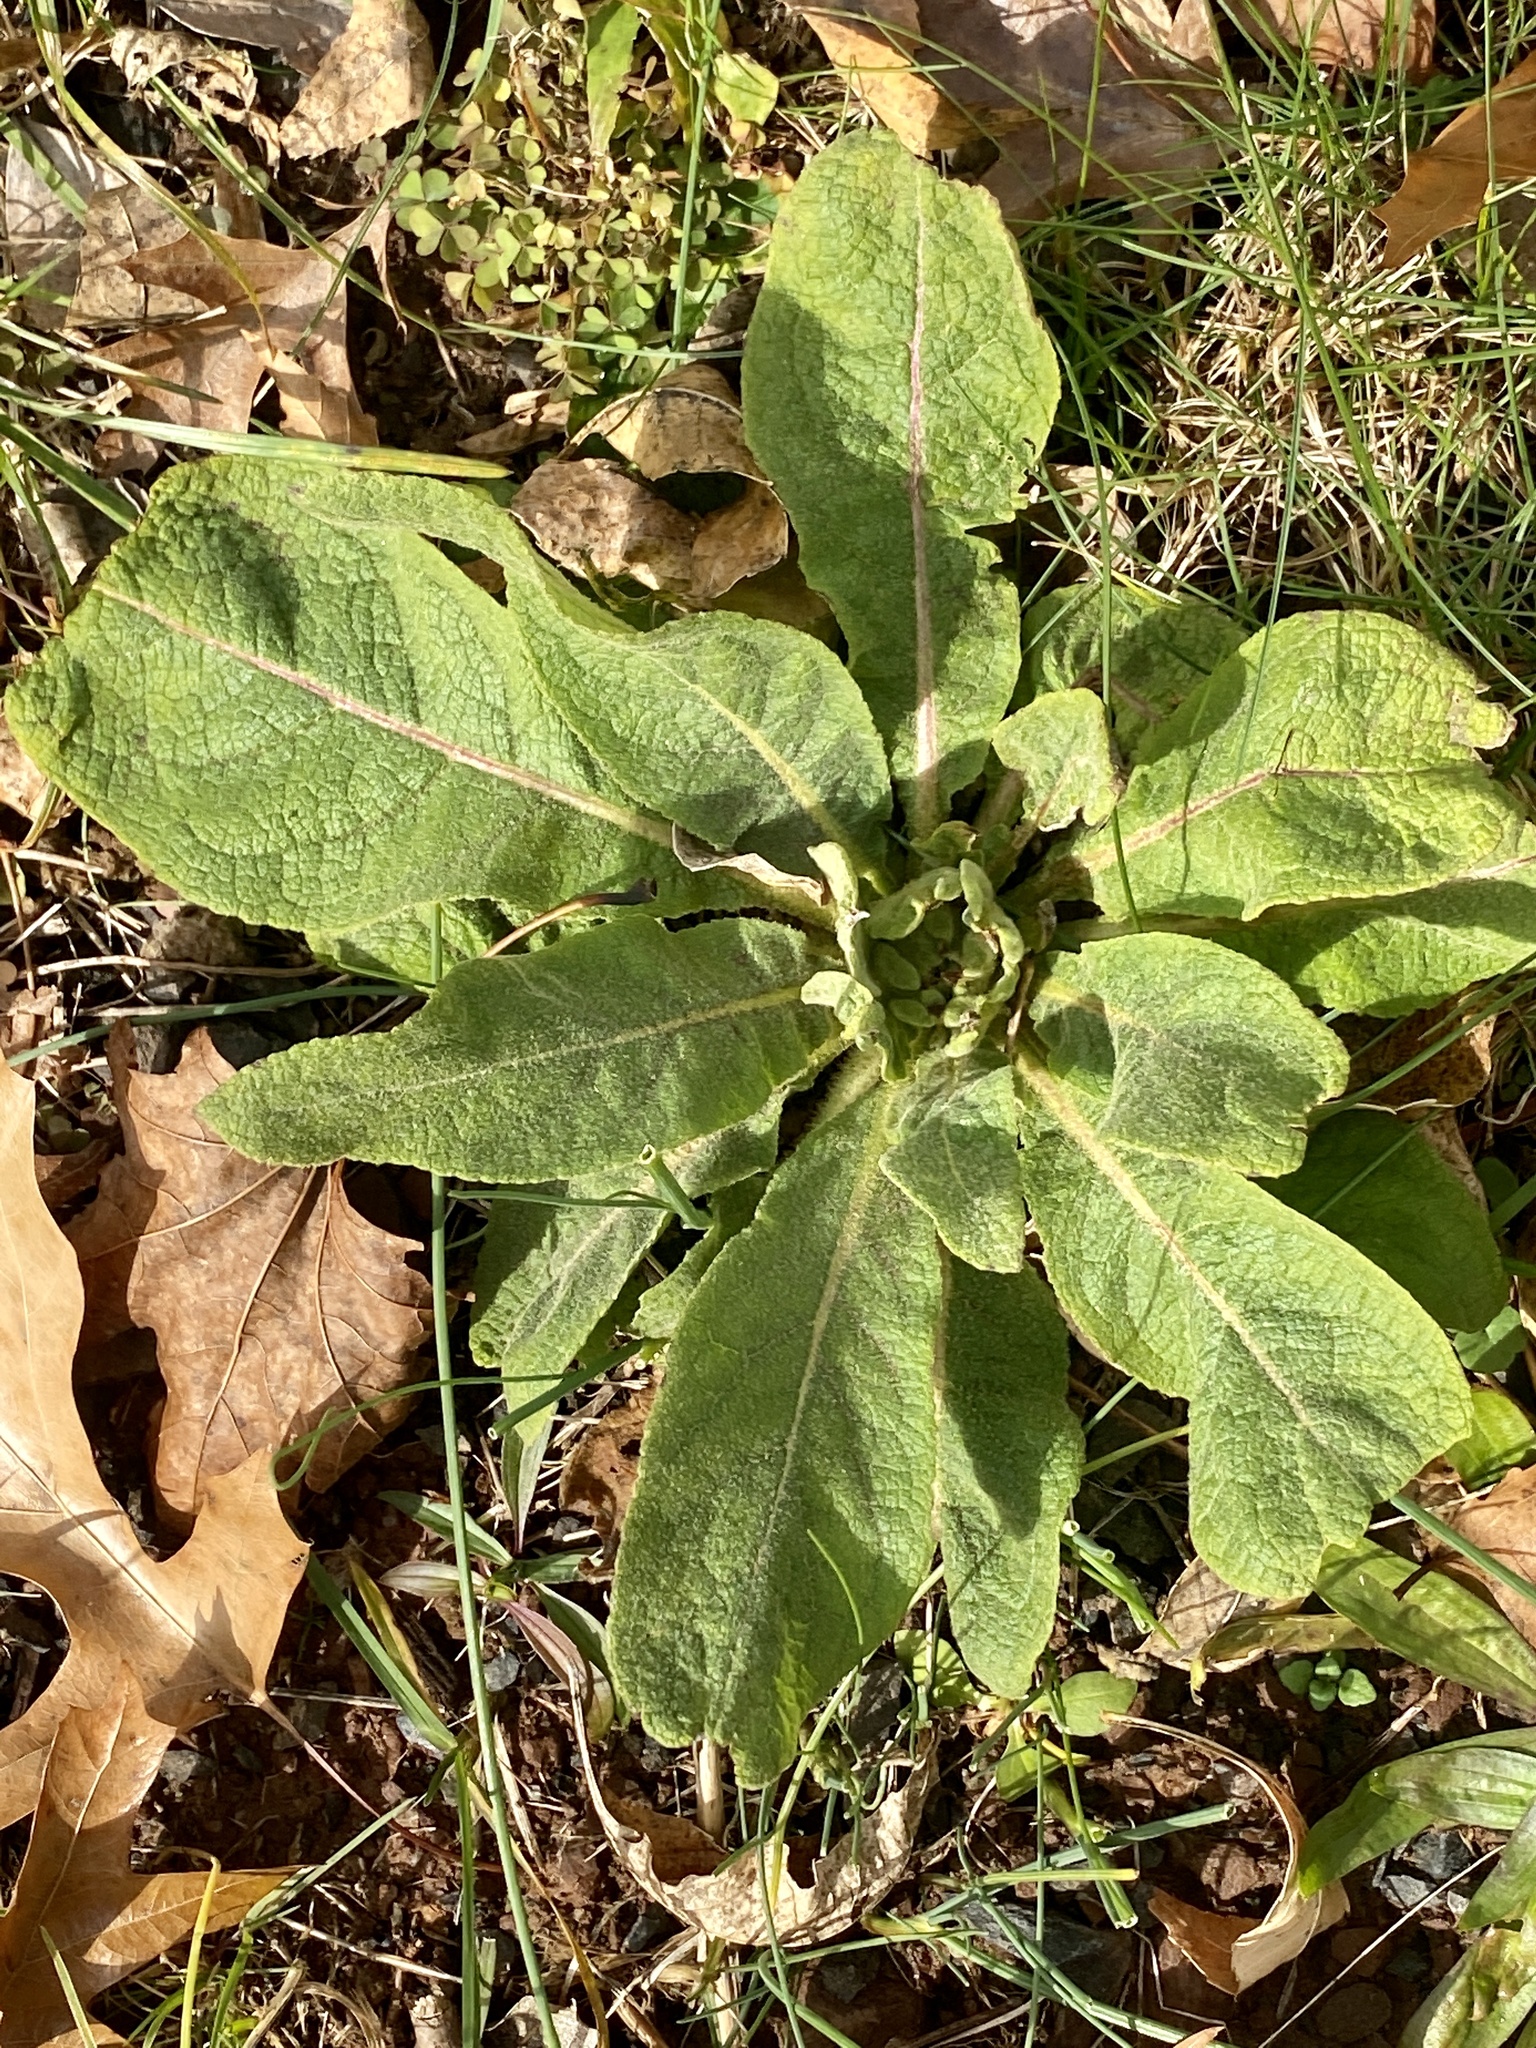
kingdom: Plantae
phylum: Tracheophyta
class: Magnoliopsida
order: Lamiales
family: Scrophulariaceae
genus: Verbascum
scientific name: Verbascum thapsus
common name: Common mullein
